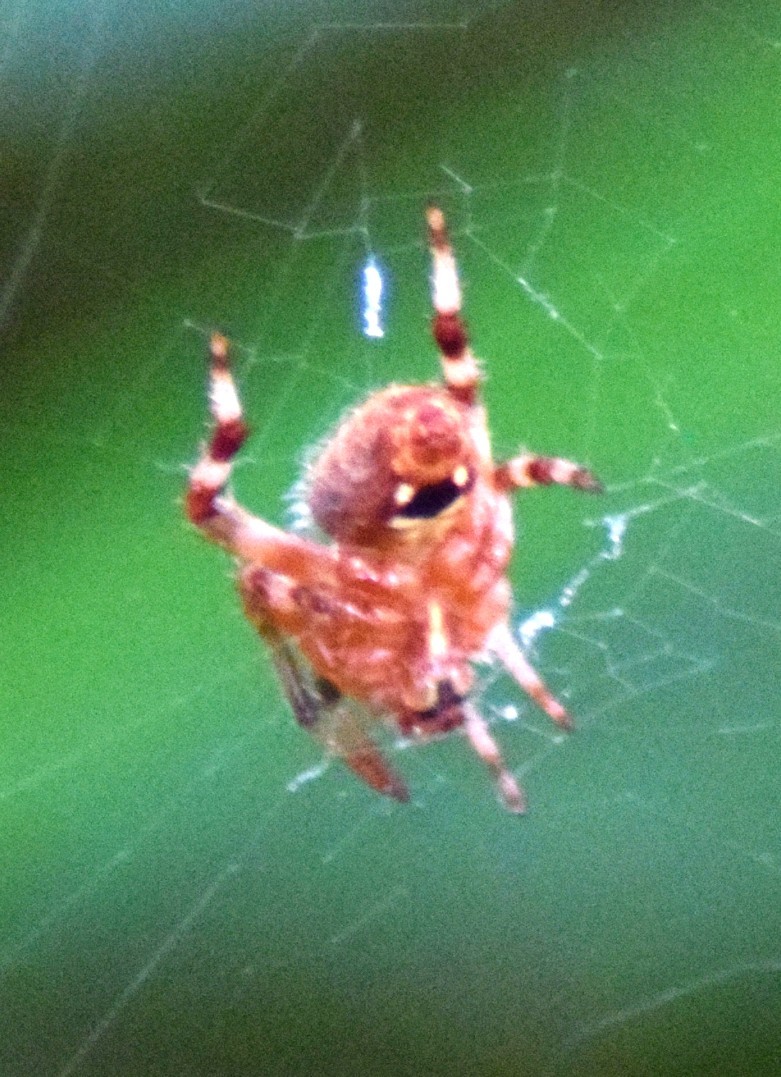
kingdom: Animalia
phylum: Arthropoda
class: Arachnida
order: Araneae
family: Araneidae
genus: Neoscona
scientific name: Neoscona crucifera
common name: Spotted orbweaver
